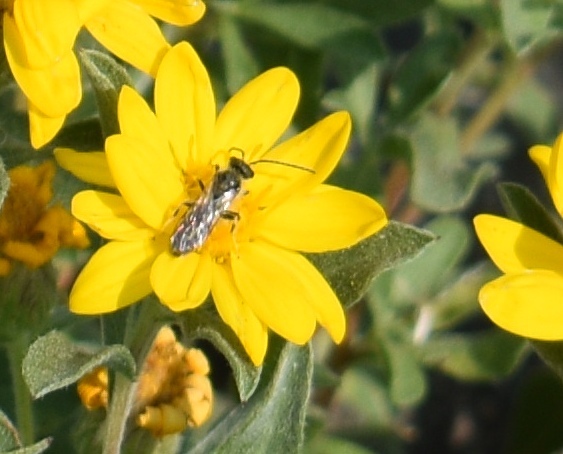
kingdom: Animalia
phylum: Arthropoda
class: Insecta
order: Hymenoptera
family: Halictidae
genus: Lasioglossum
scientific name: Lasioglossum
